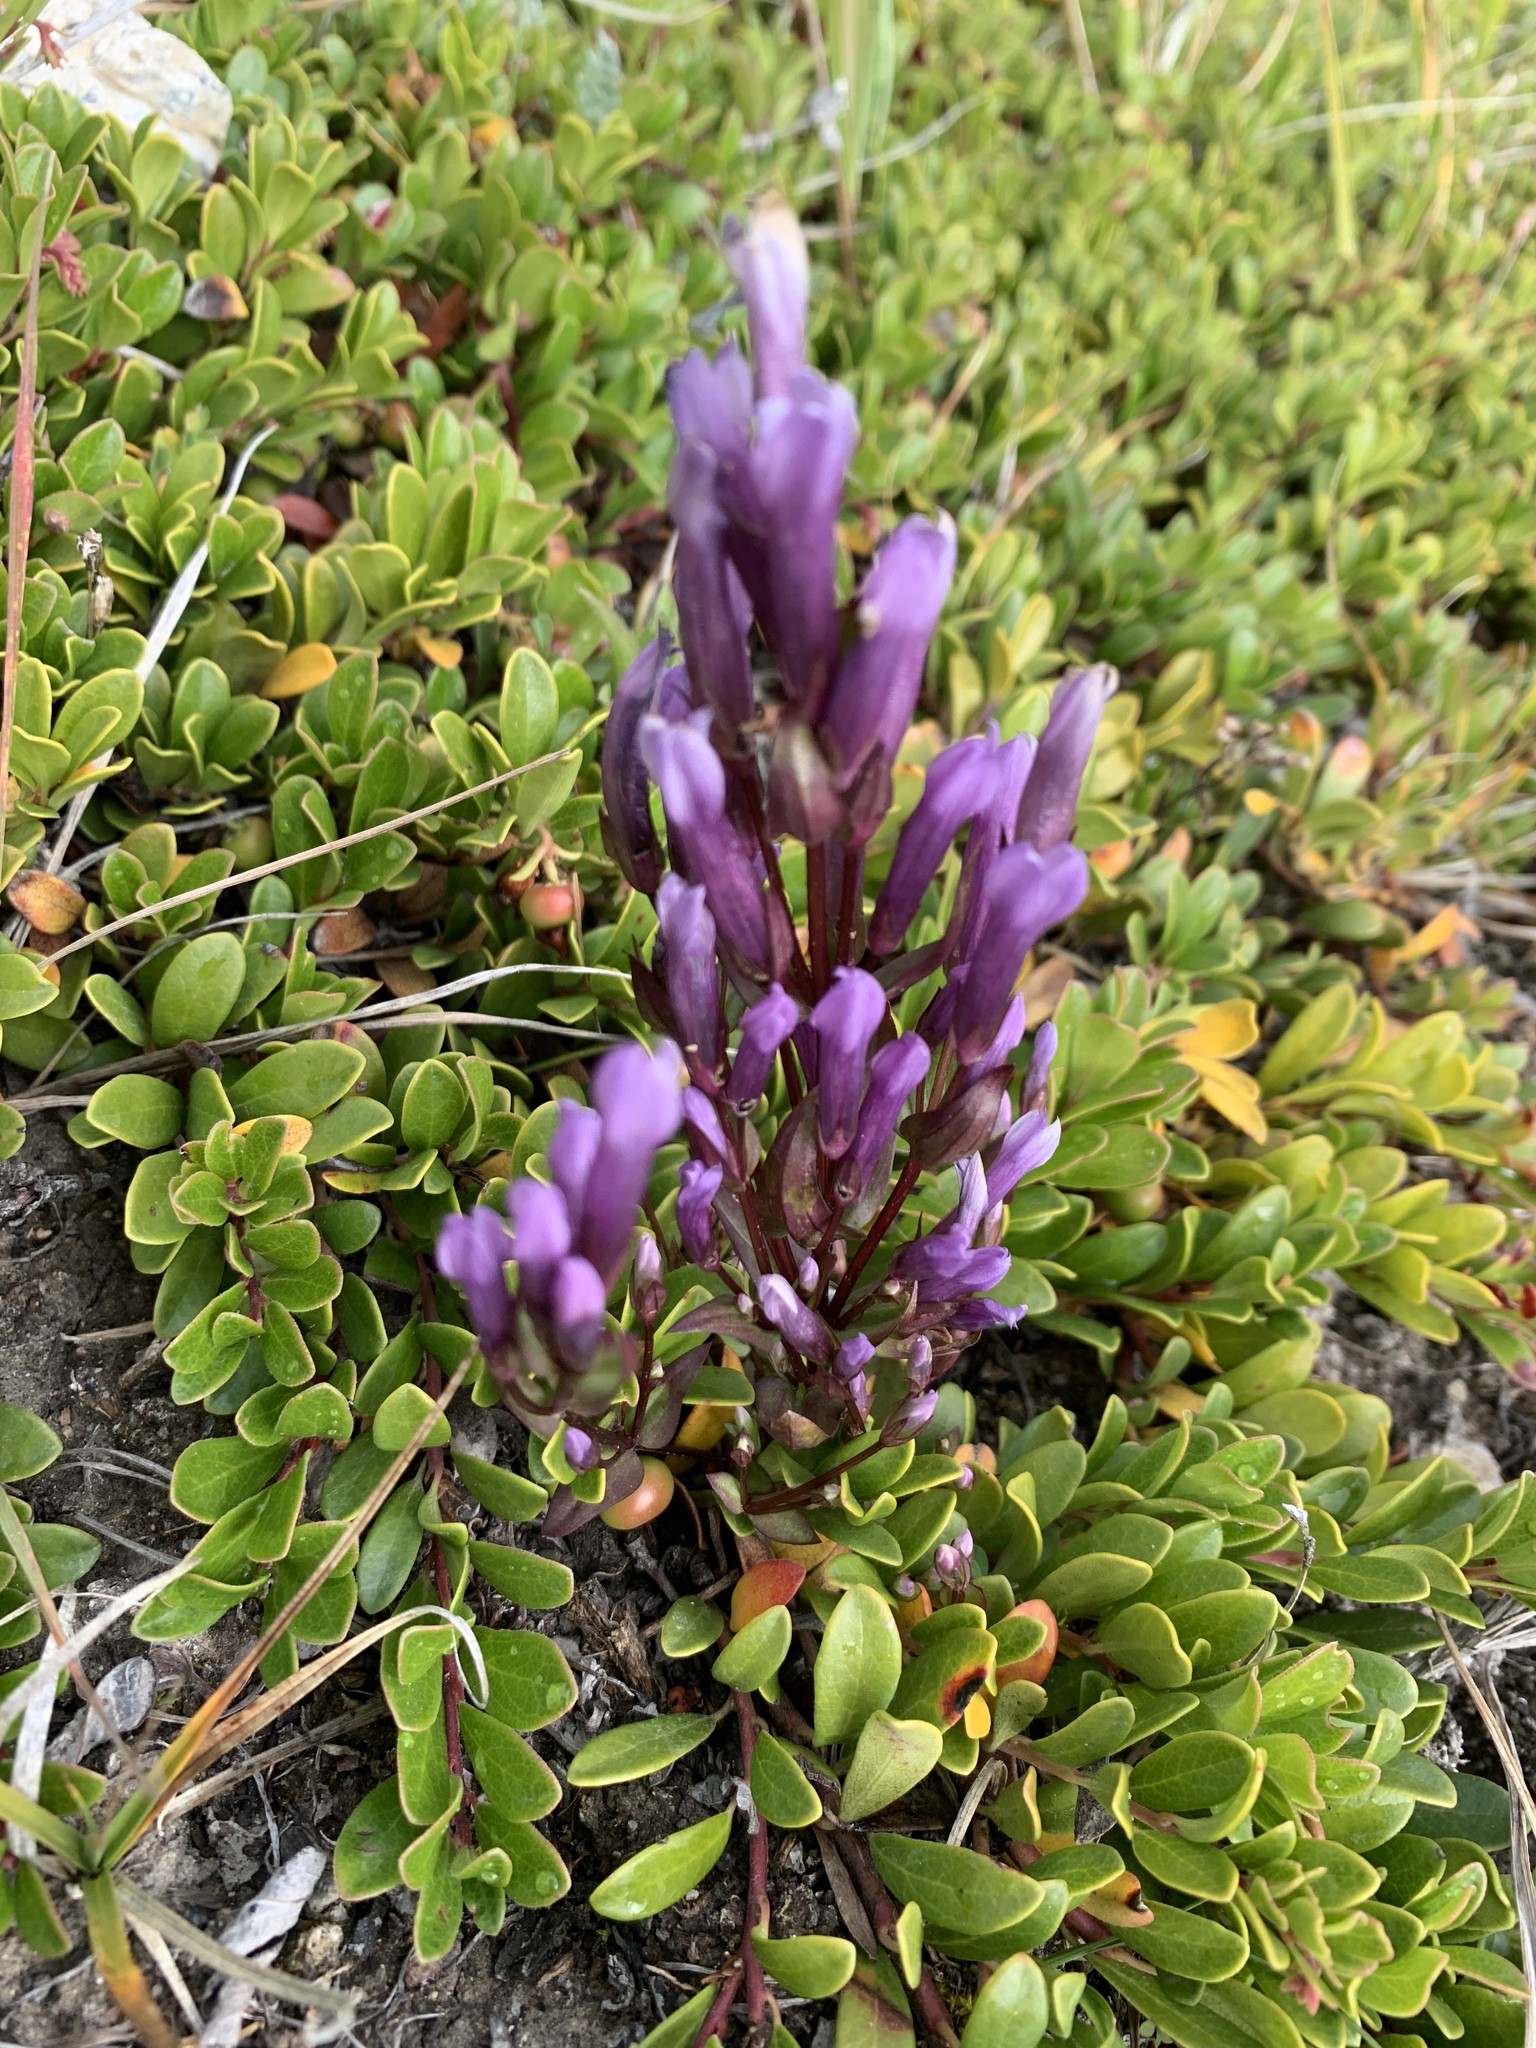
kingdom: Plantae
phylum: Tracheophyta
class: Magnoliopsida
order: Gentianales
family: Gentianaceae
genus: Gentianella
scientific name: Gentianella propinqua
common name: Four-parted dwarf-gentian
